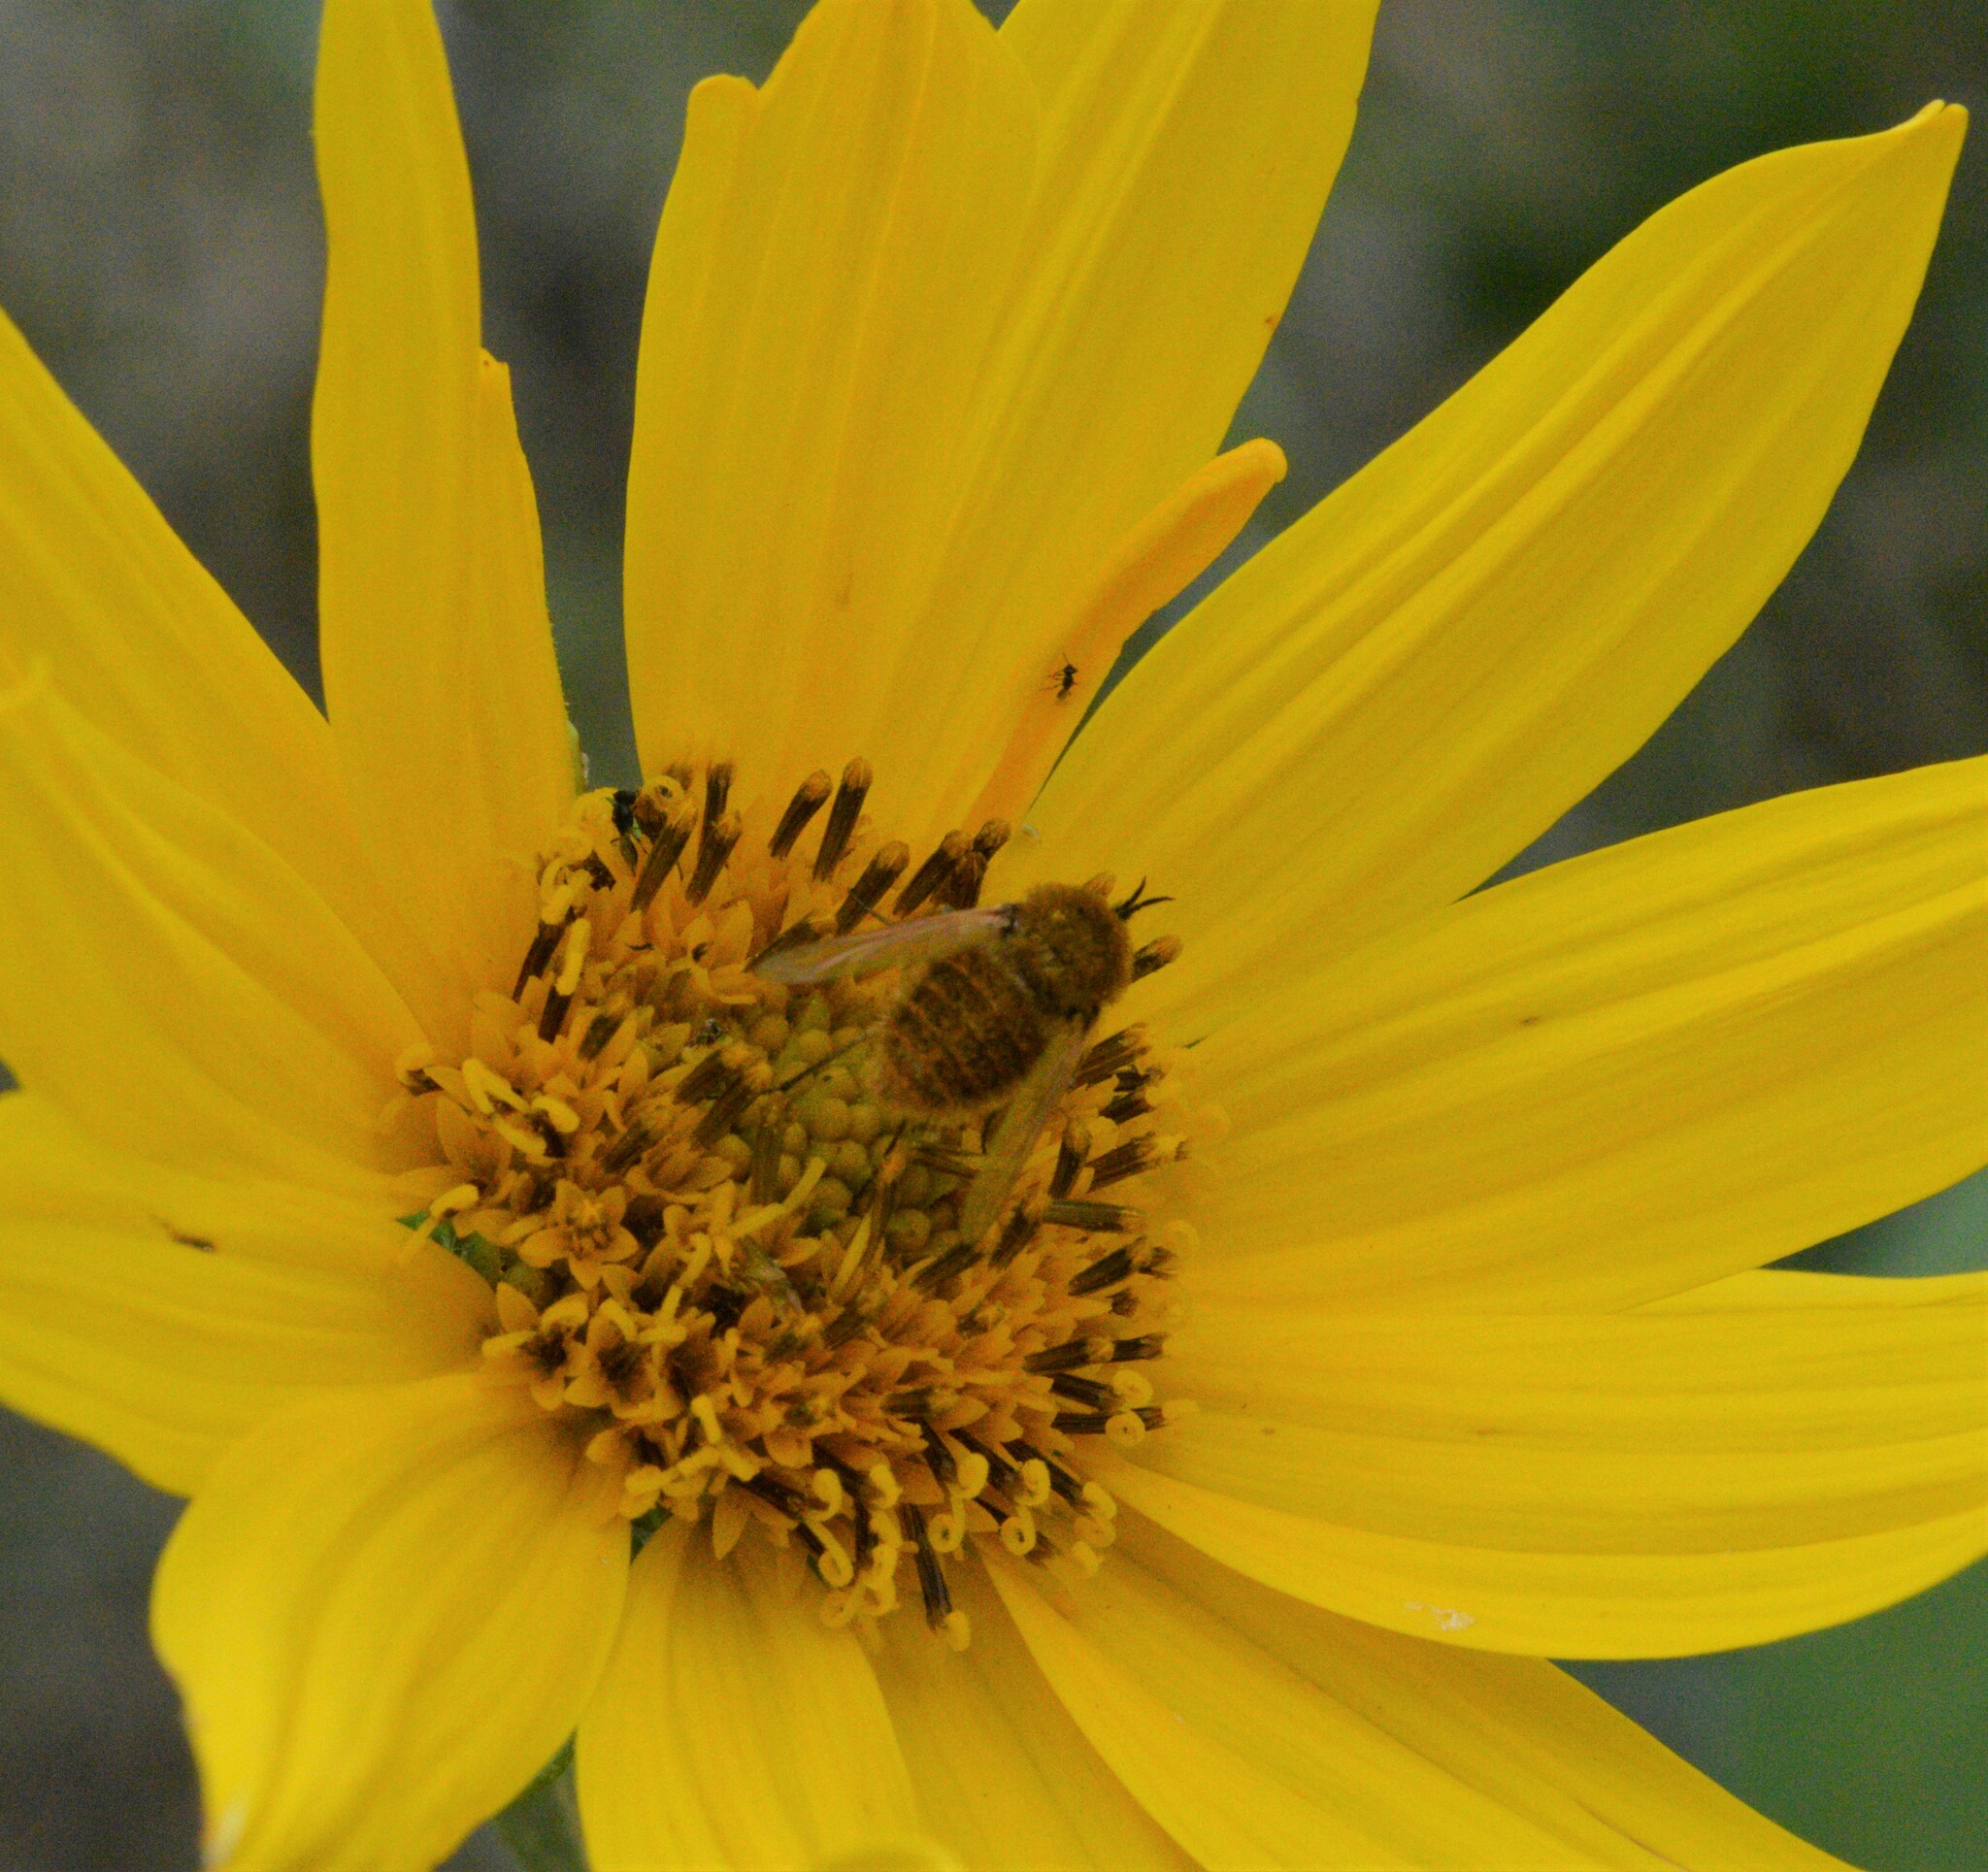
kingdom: Animalia
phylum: Arthropoda
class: Insecta
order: Diptera
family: Bombyliidae
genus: Sparnopolius
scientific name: Sparnopolius confusus
